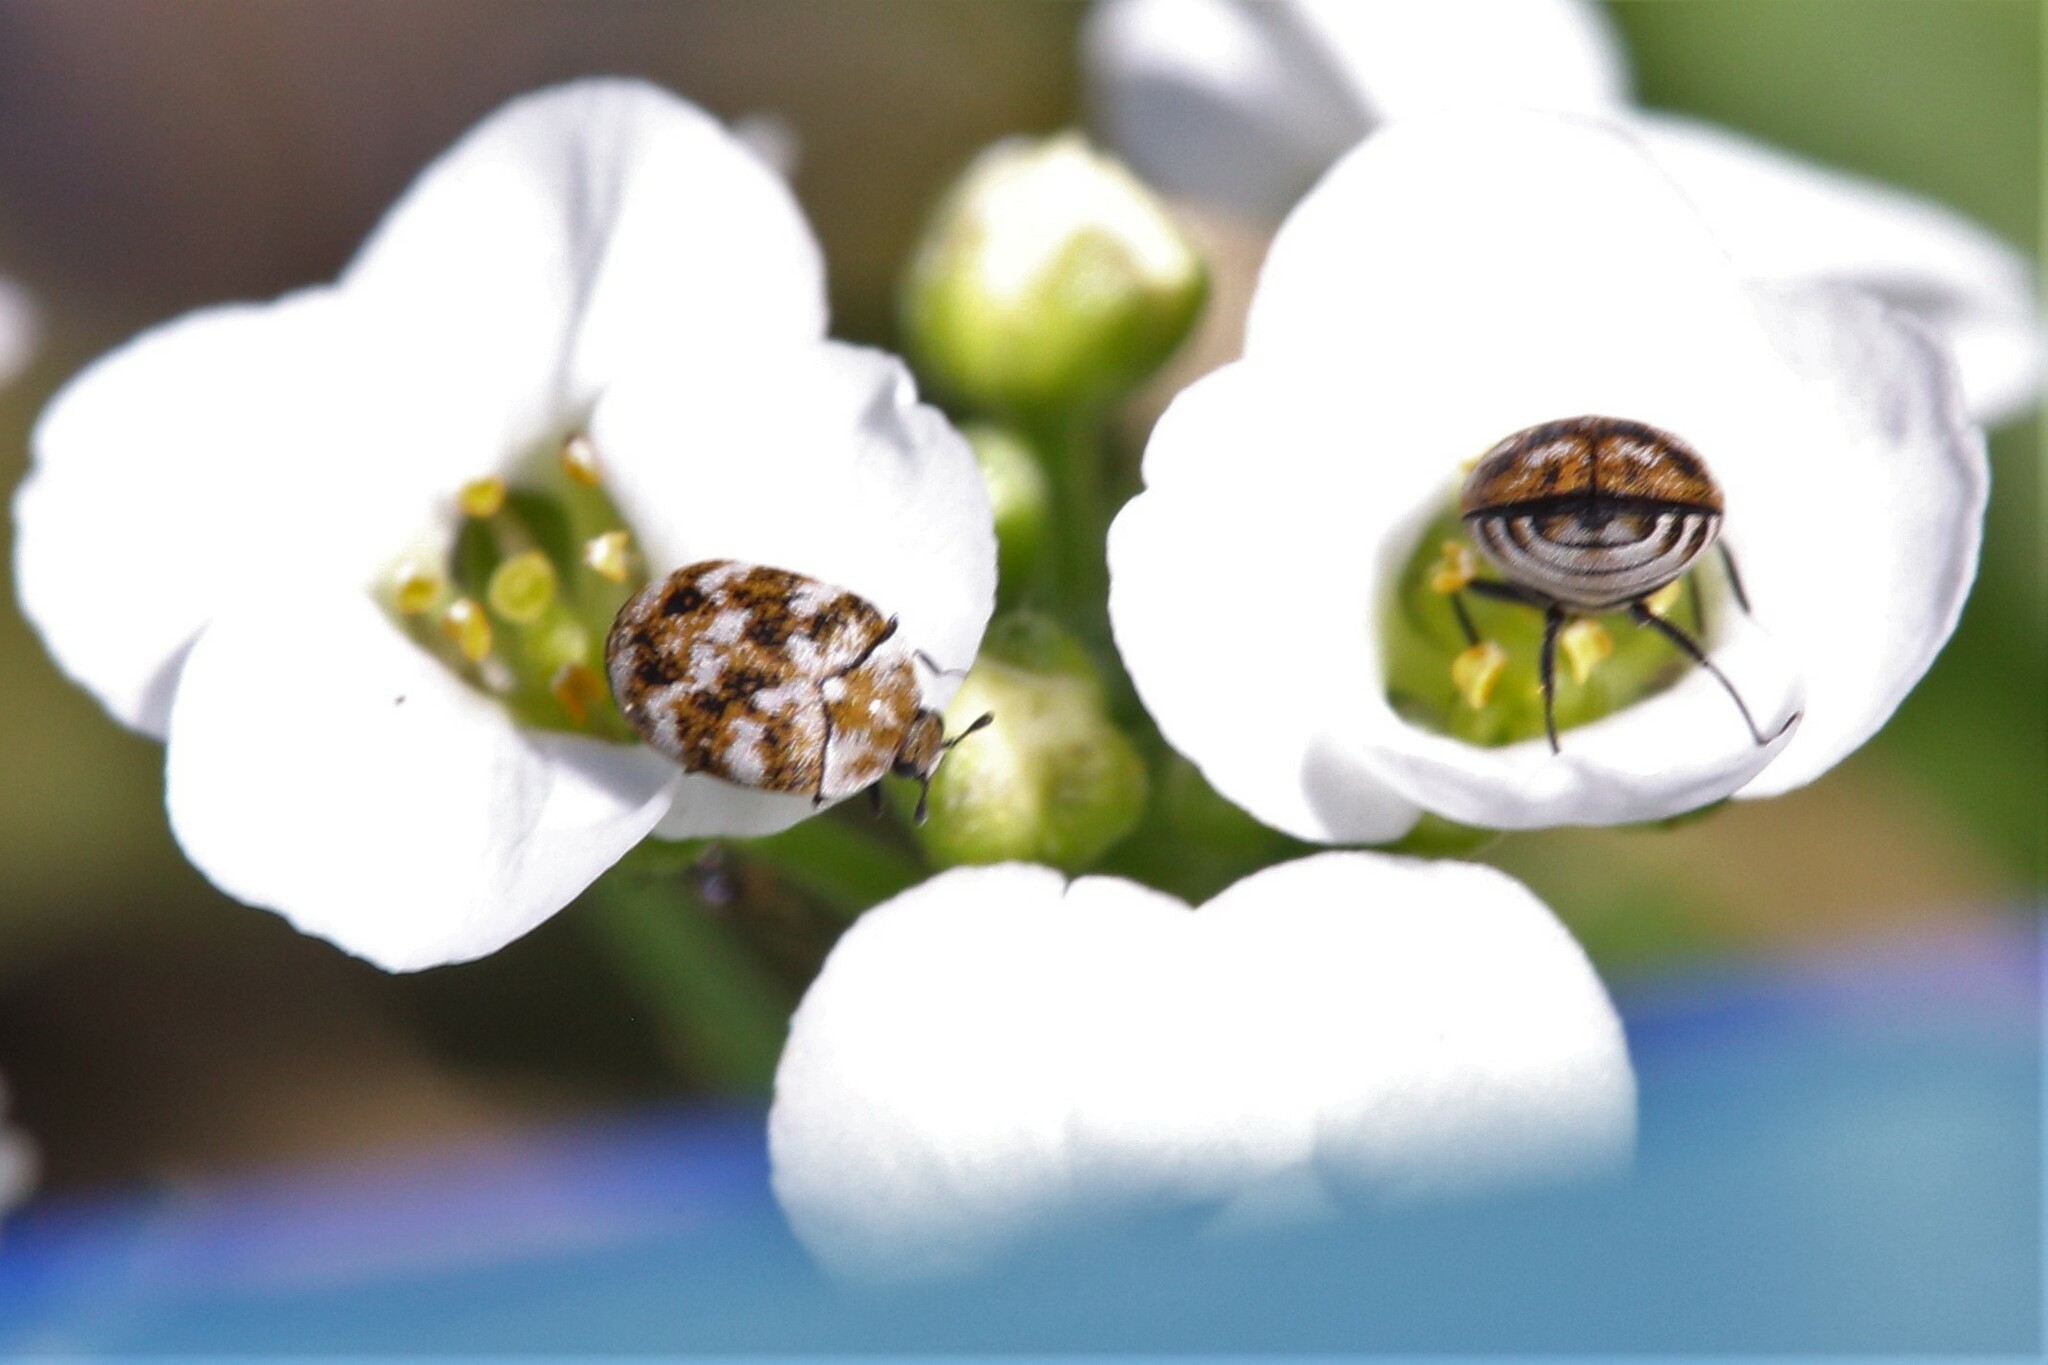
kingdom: Animalia
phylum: Arthropoda
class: Insecta
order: Coleoptera
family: Dermestidae
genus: Anthrenus
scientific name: Anthrenus verbasci
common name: Varied carpet beetle
